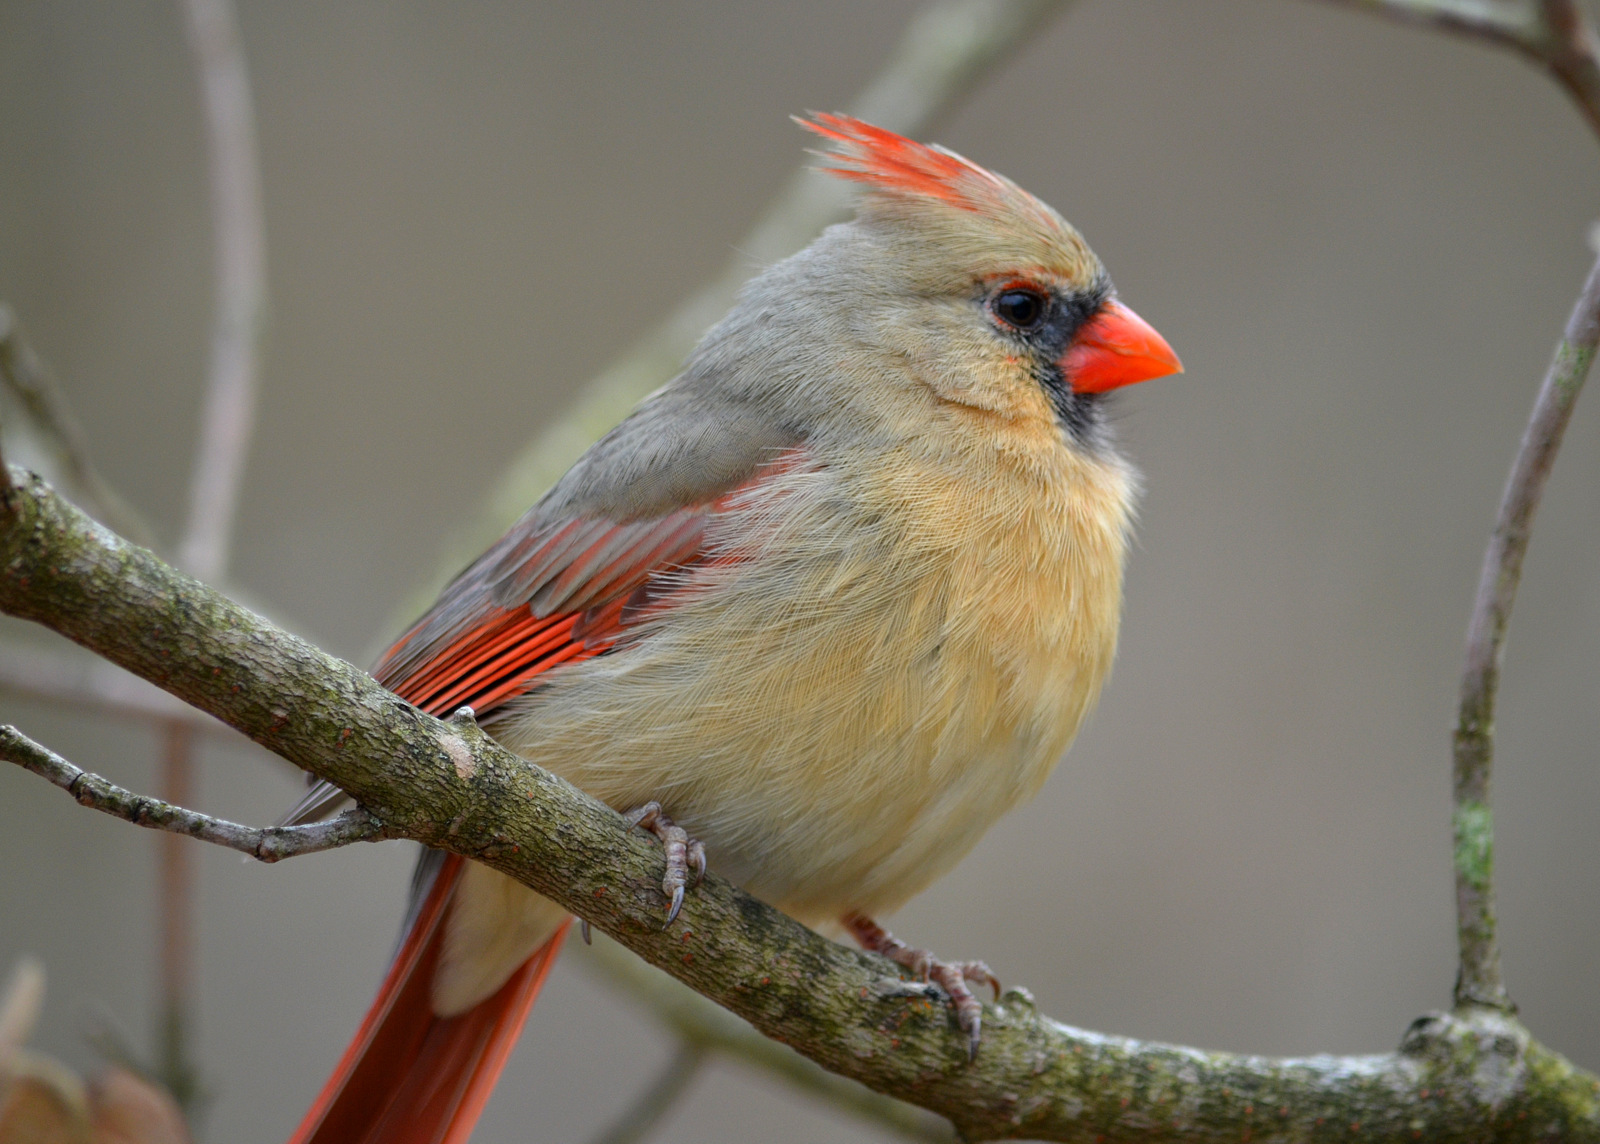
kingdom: Animalia
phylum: Chordata
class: Aves
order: Passeriformes
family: Cardinalidae
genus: Cardinalis
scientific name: Cardinalis cardinalis
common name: Northern cardinal
